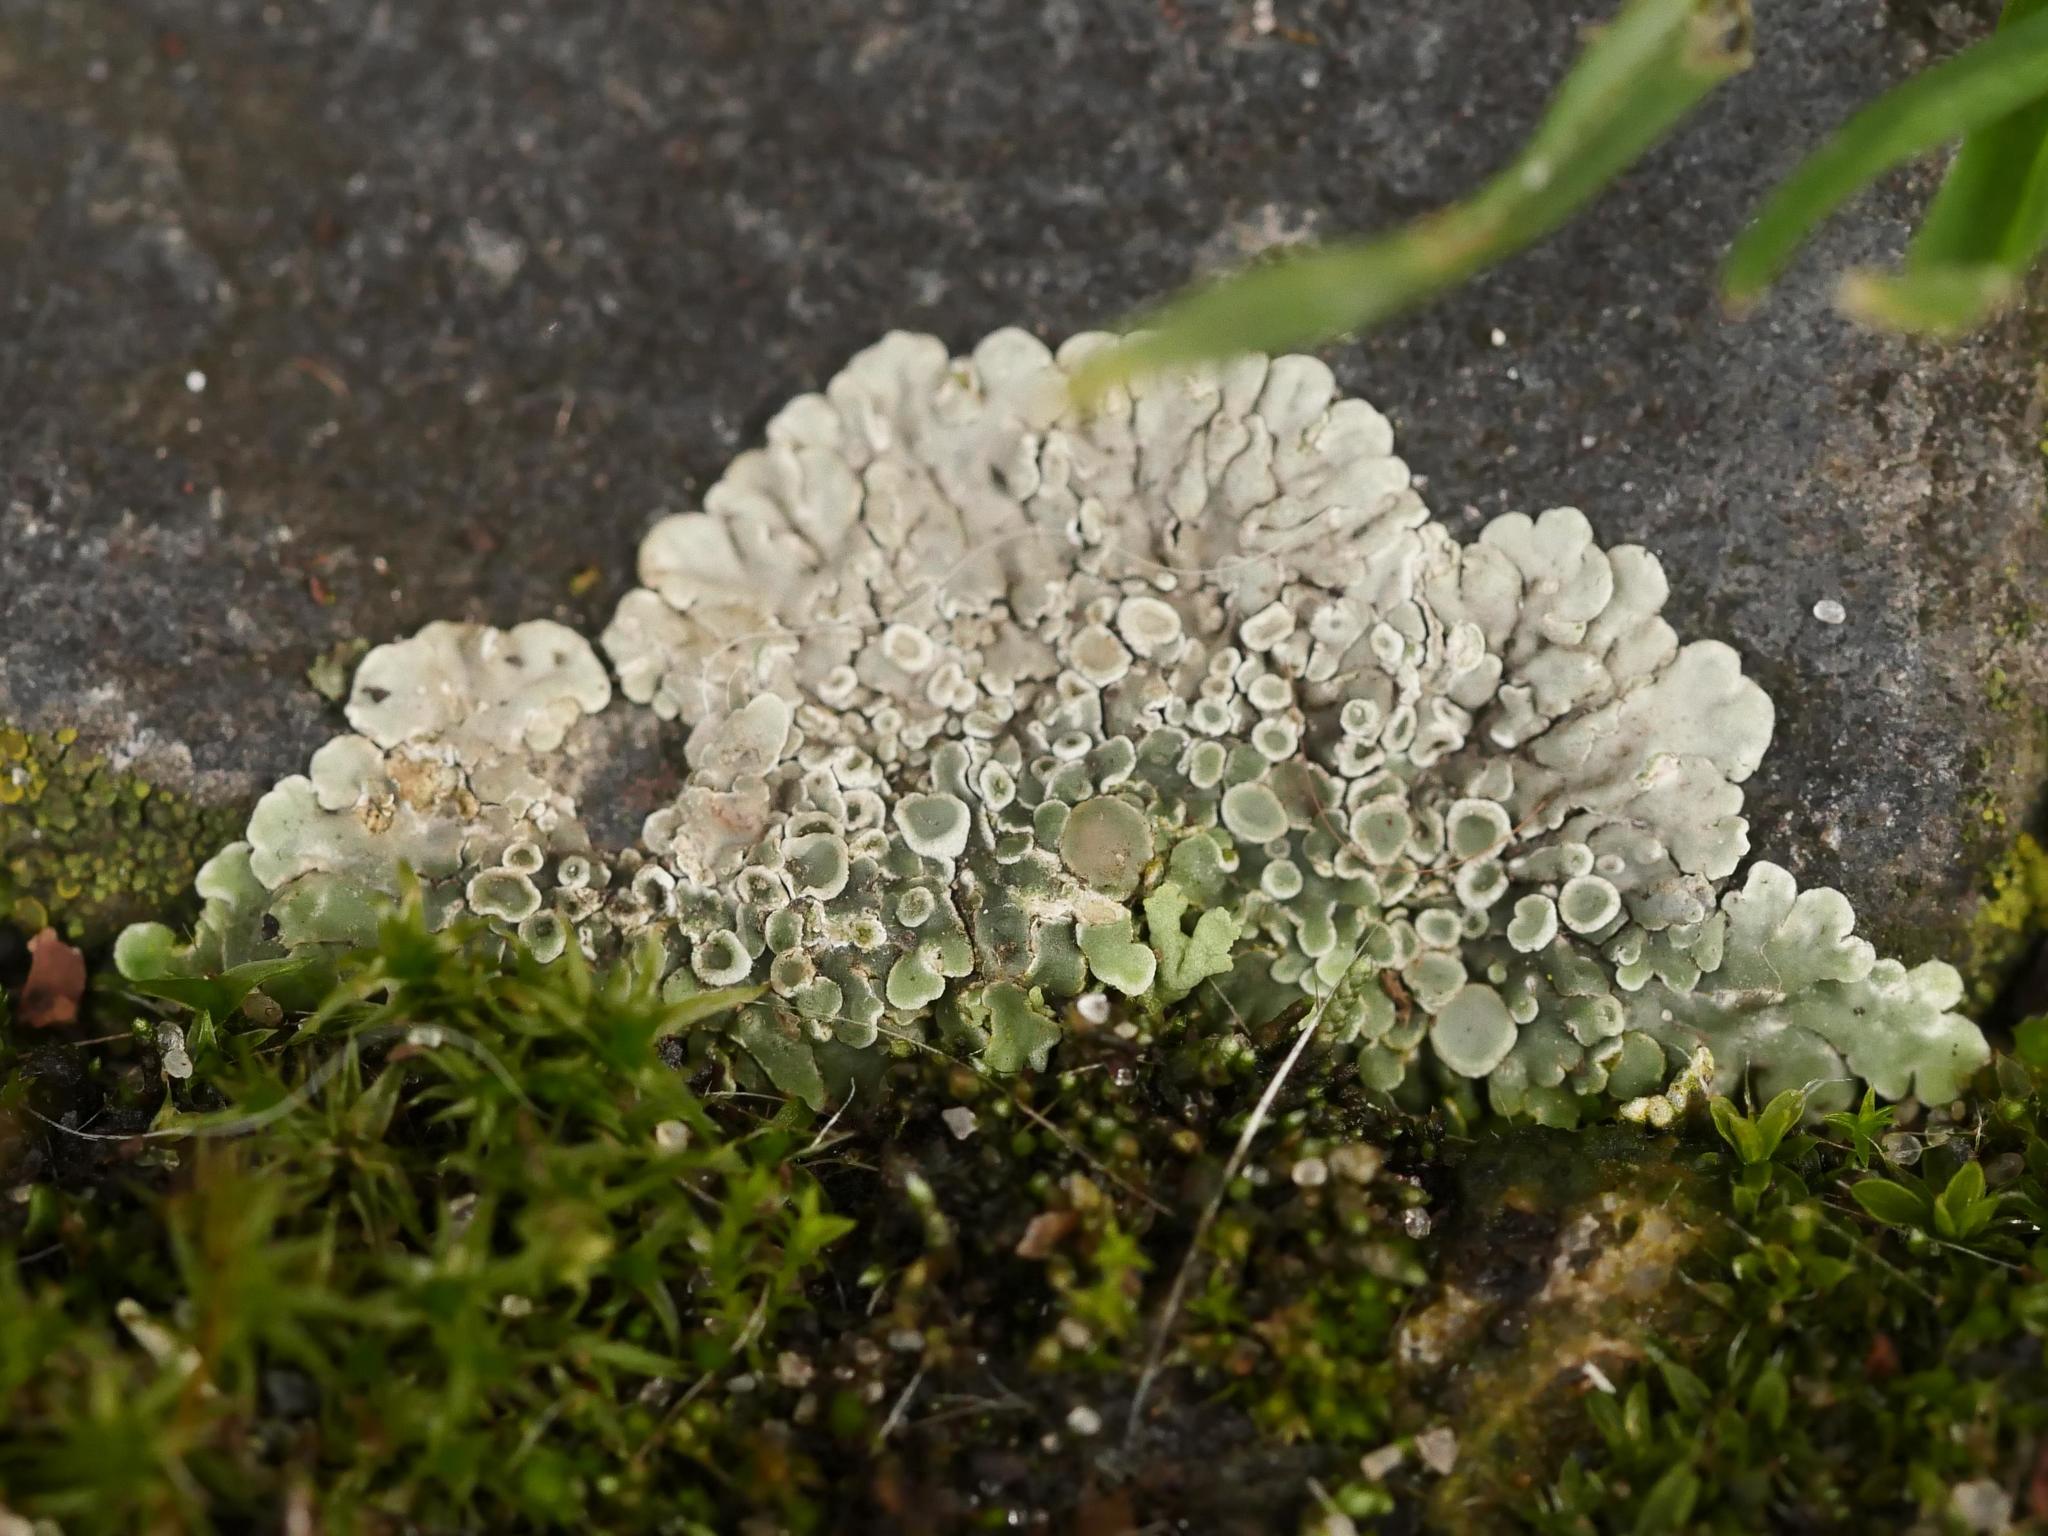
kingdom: Fungi
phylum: Ascomycota
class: Lecanoromycetes
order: Lecanorales
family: Lecanoraceae
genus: Protoparmeliopsis
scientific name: Protoparmeliopsis muralis
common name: Stonewall rim lichen
